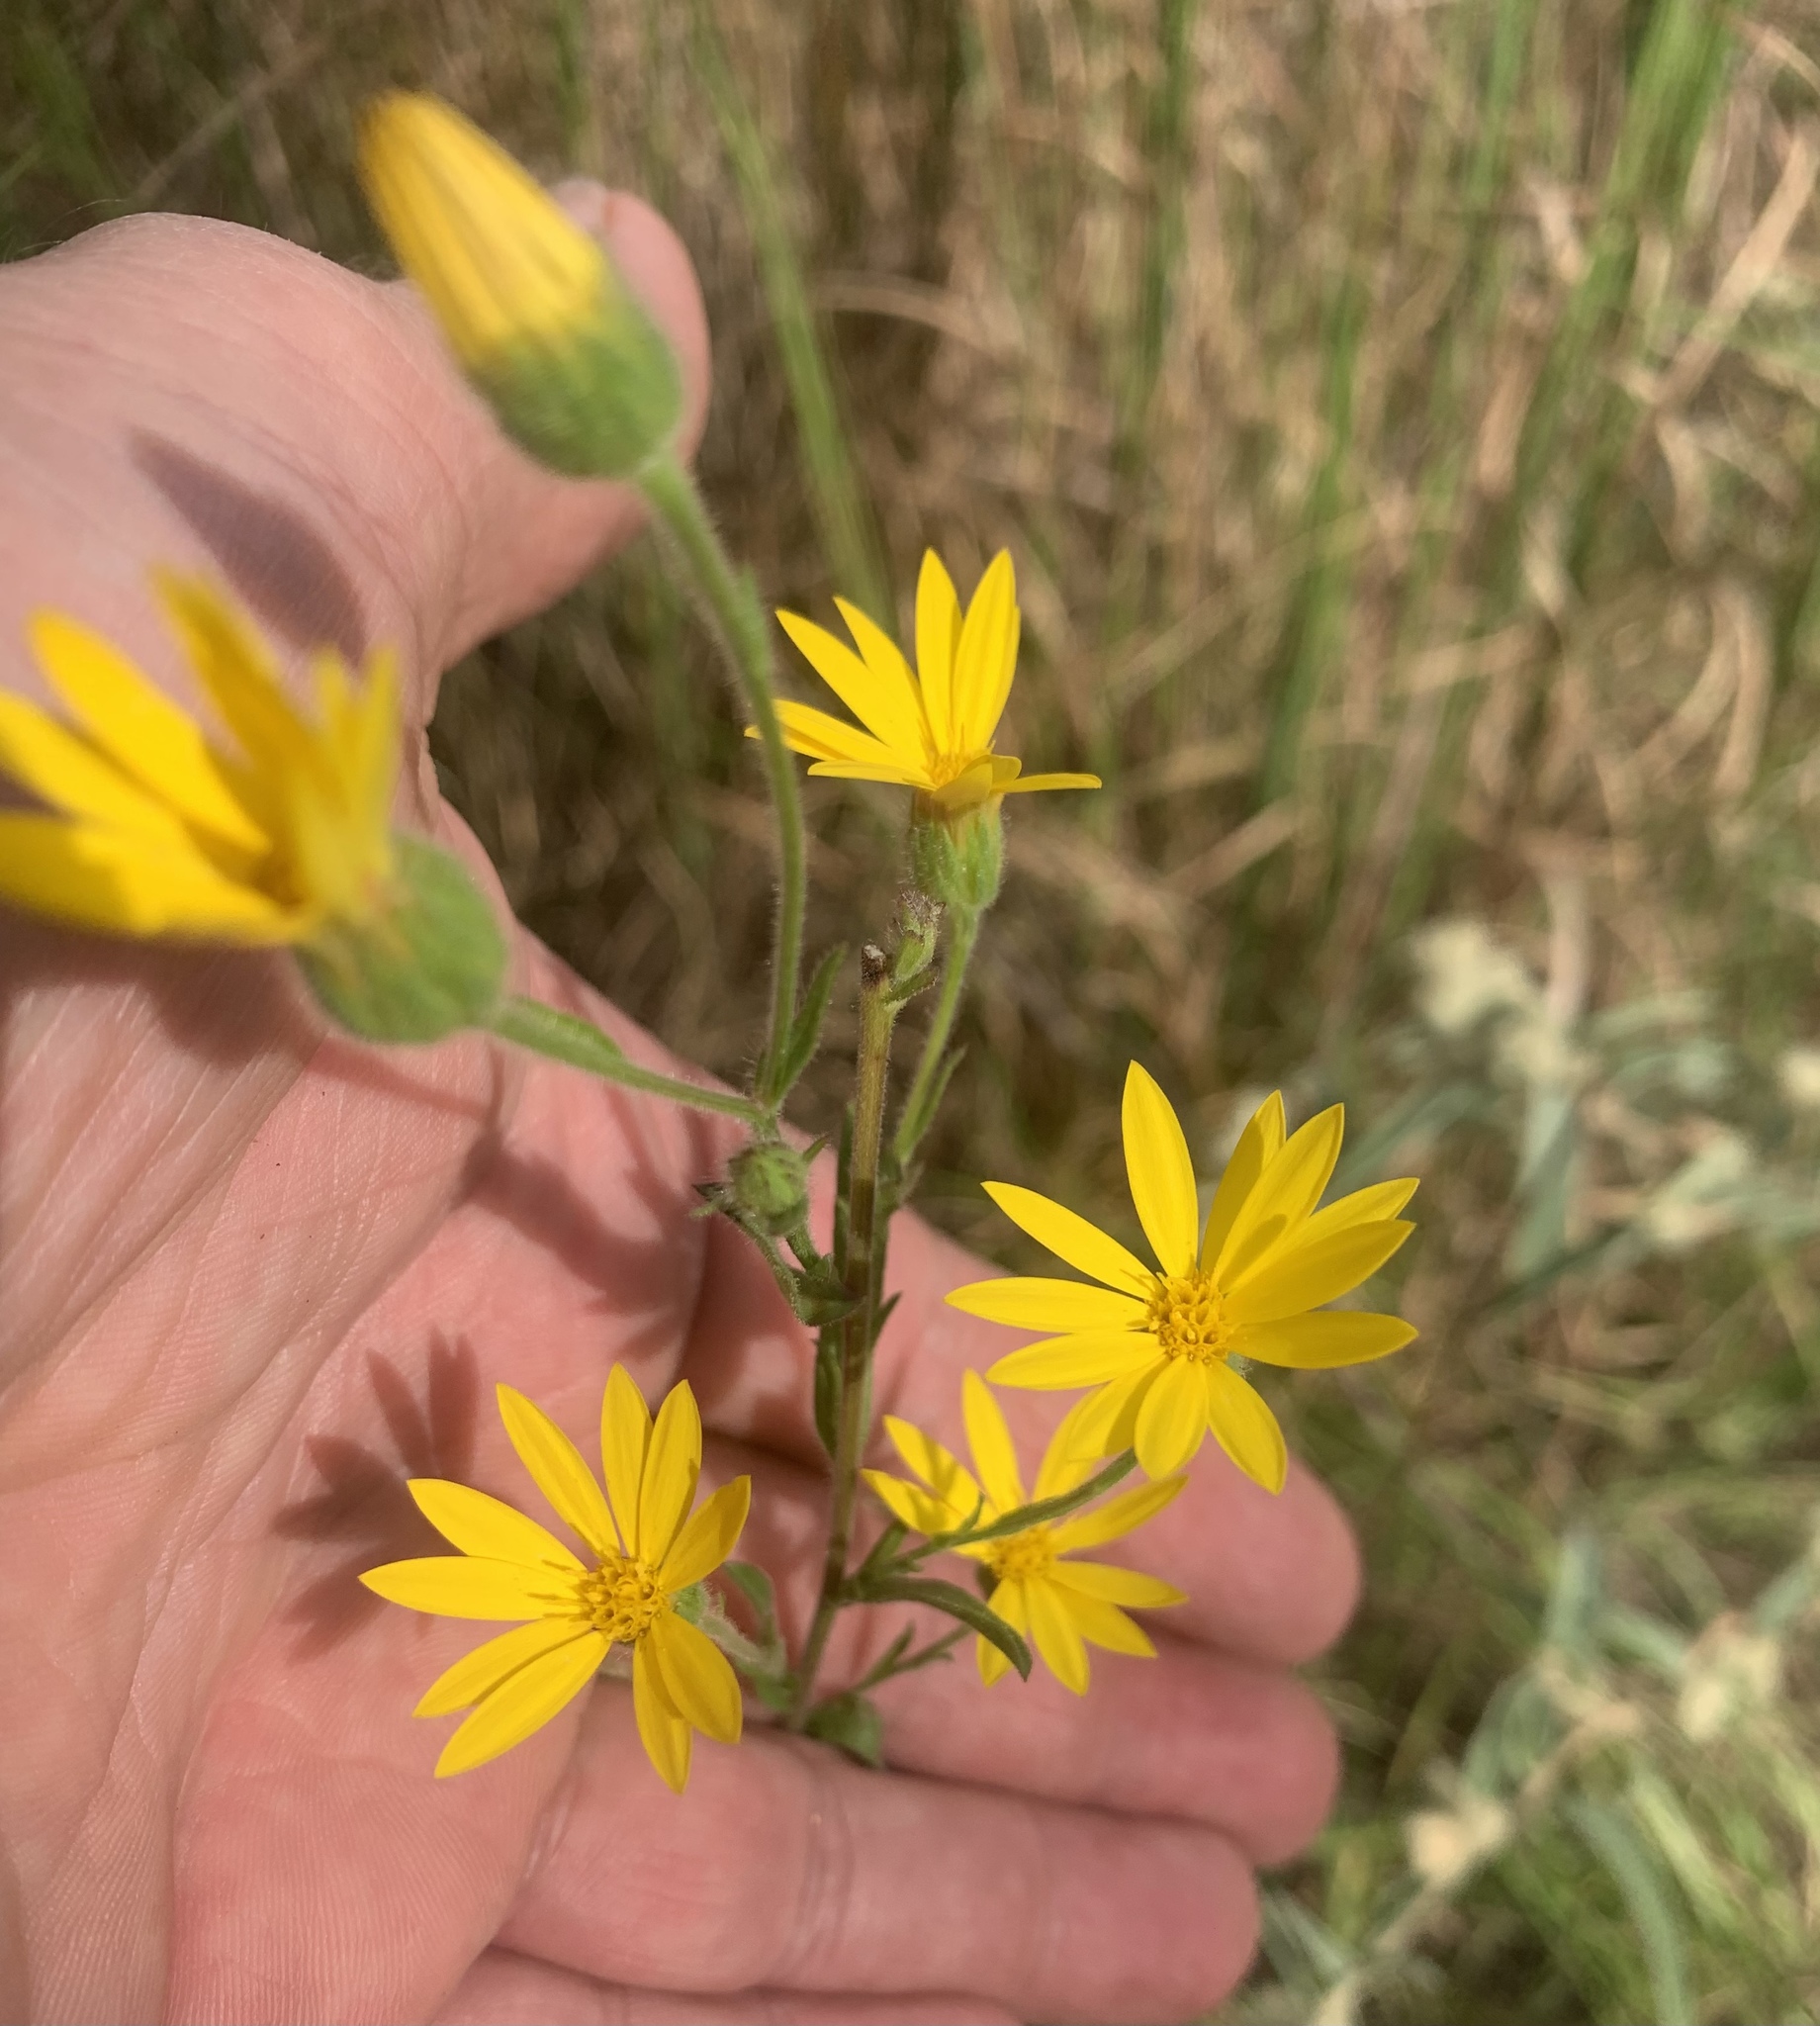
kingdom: Plantae
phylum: Tracheophyta
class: Magnoliopsida
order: Asterales
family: Asteraceae
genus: Bradburia
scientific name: Bradburia pilosa
